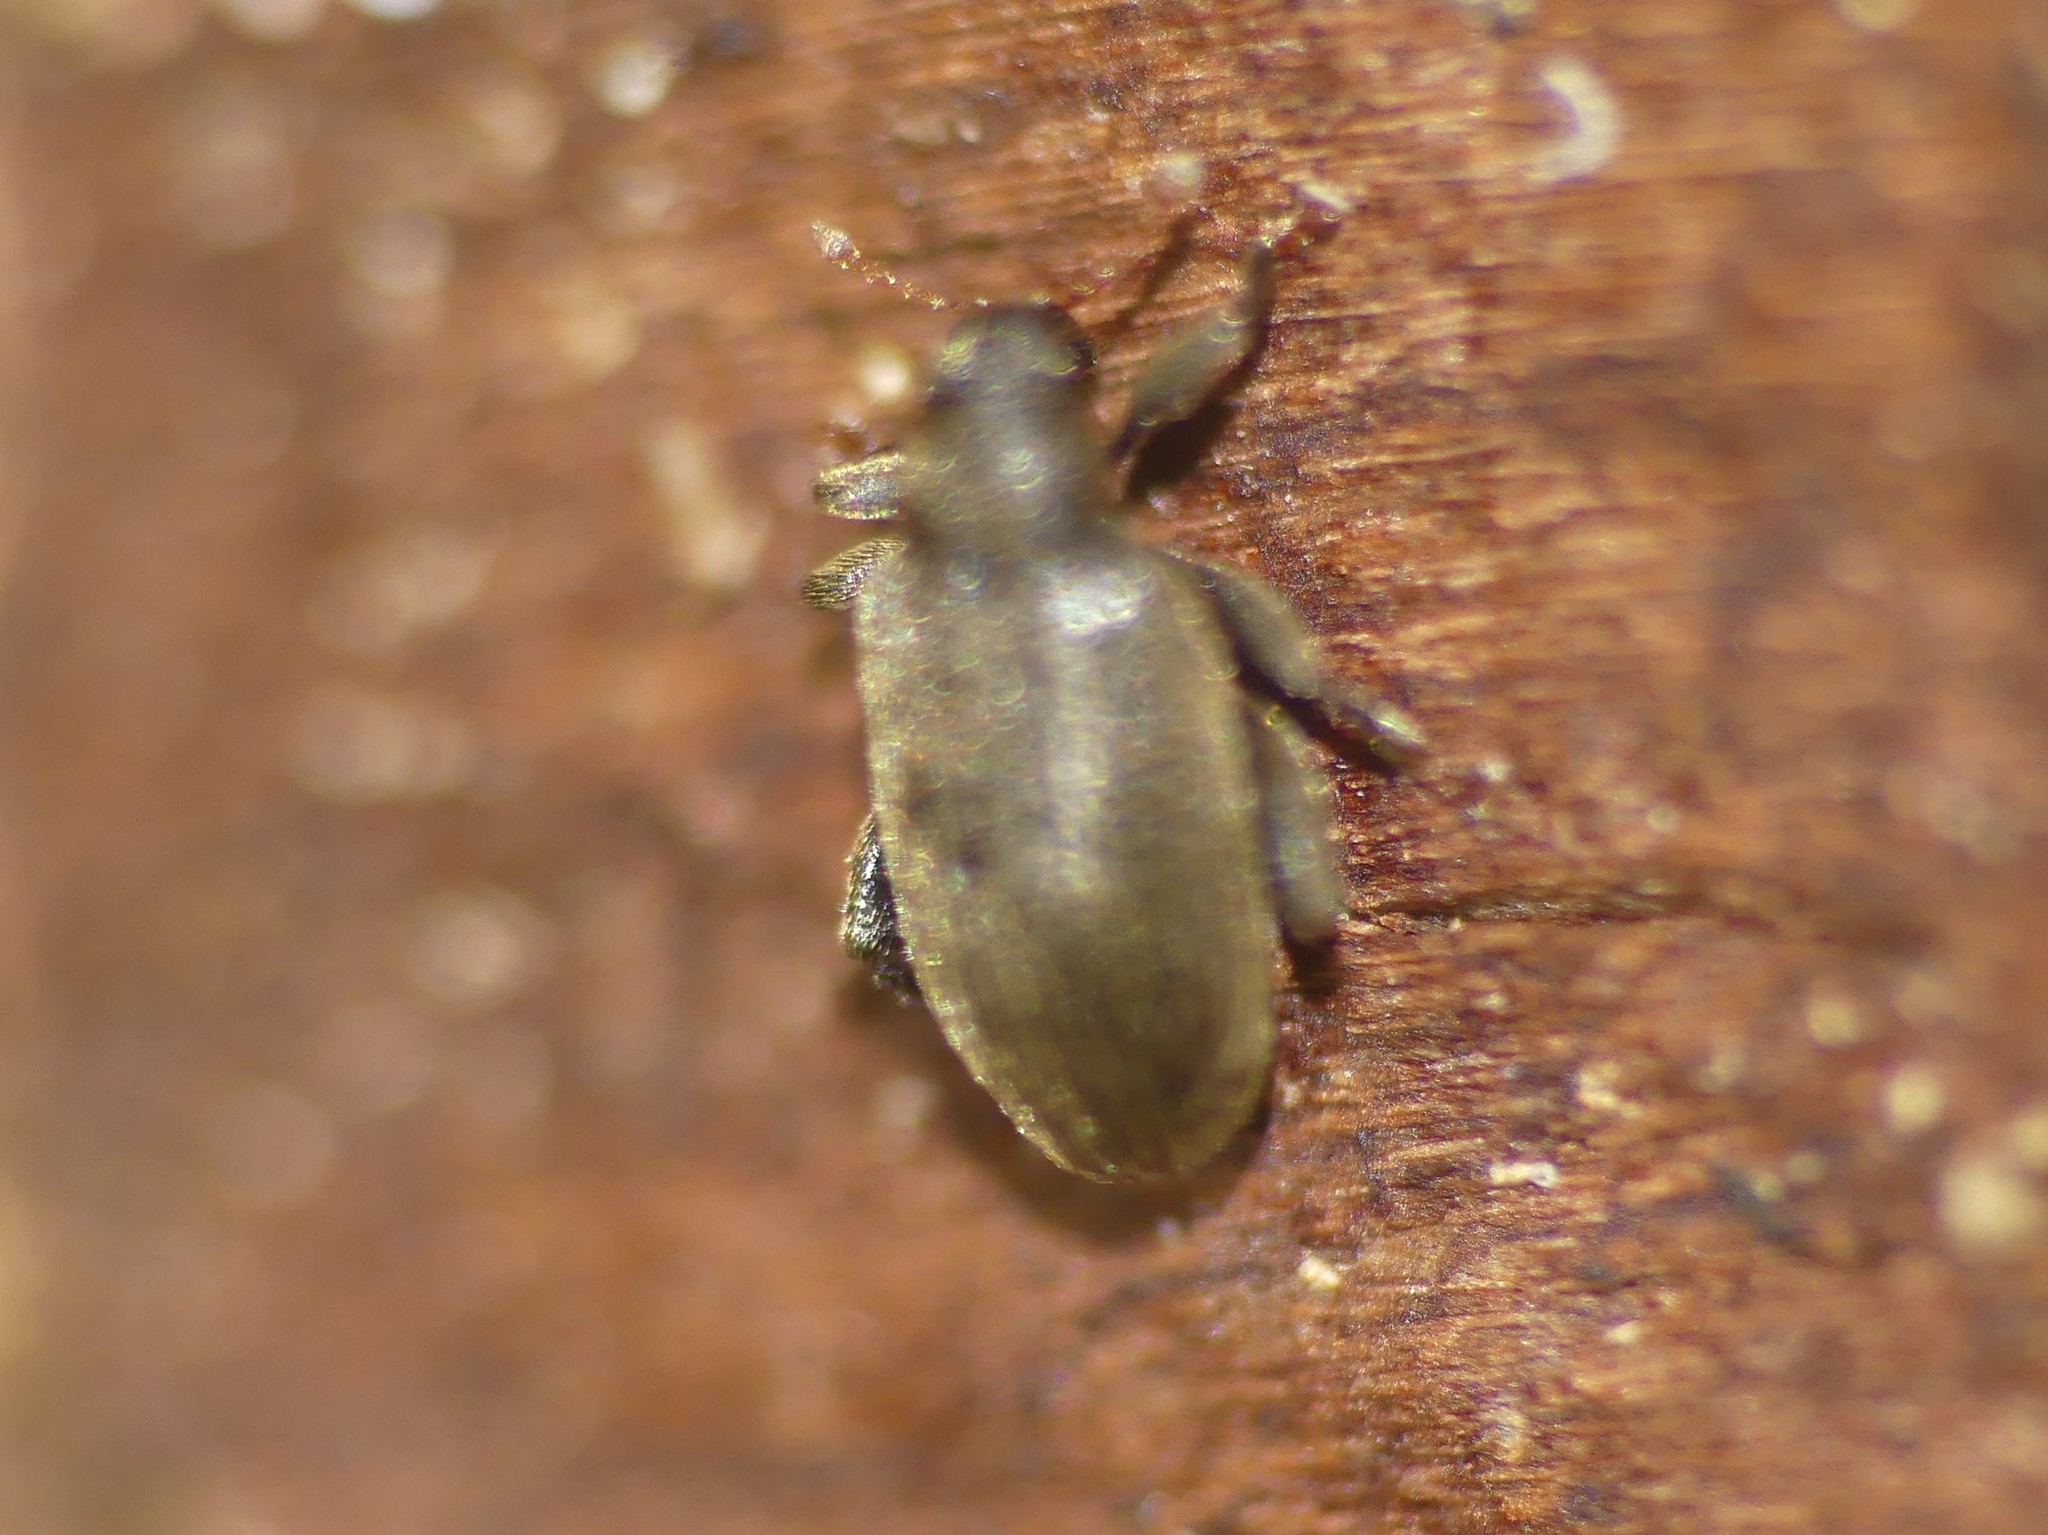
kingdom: Animalia
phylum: Arthropoda
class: Insecta
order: Coleoptera
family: Curculionidae
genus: Orchestes
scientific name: Orchestes fagi
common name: Beech leaf miner
